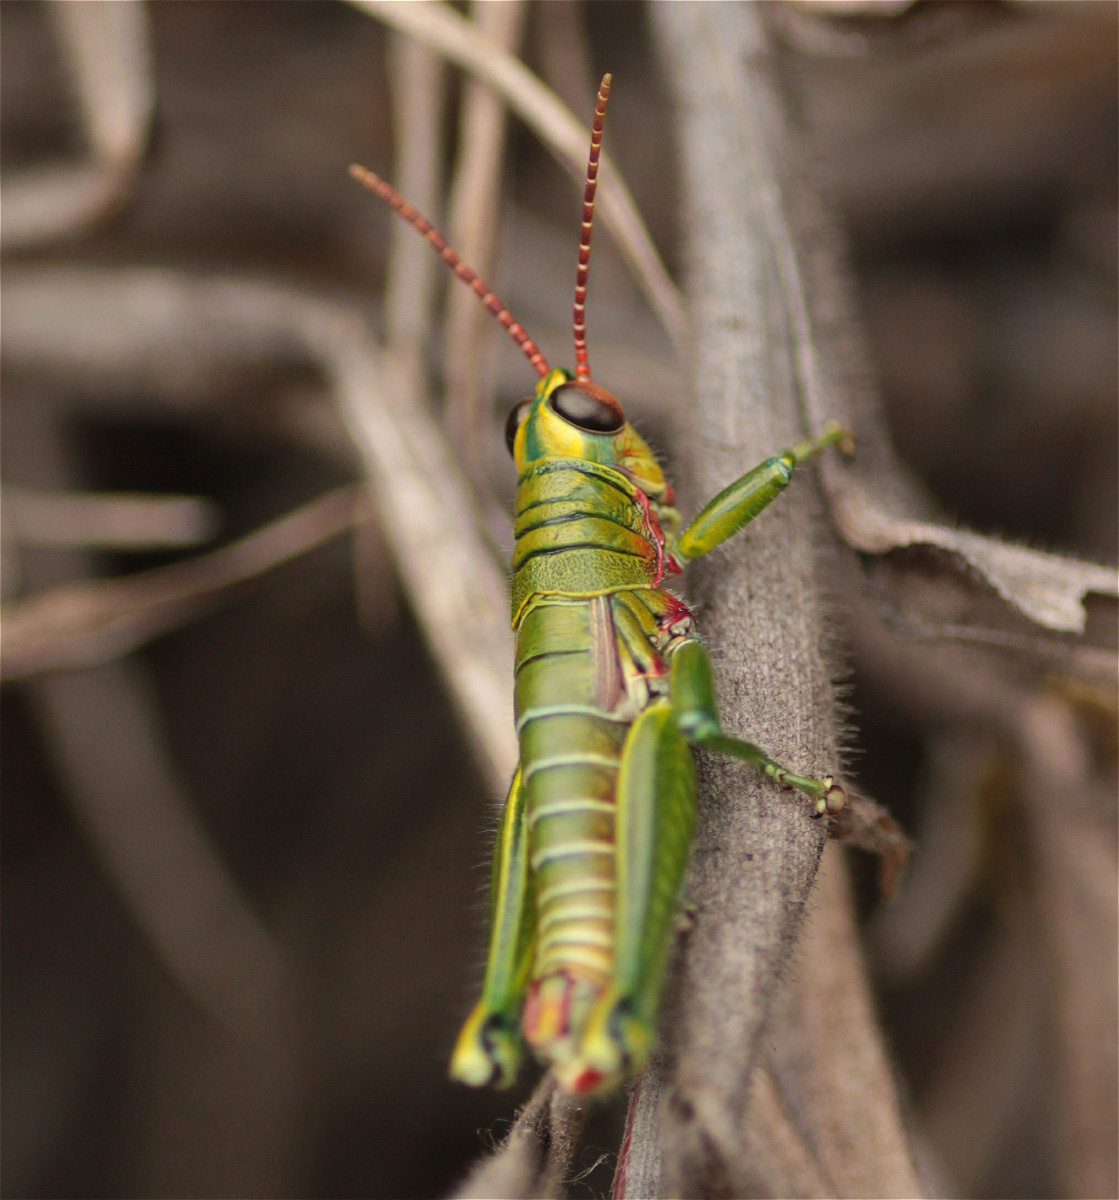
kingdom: Animalia
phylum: Arthropoda
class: Insecta
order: Orthoptera
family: Acrididae
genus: Agesander
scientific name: Agesander ruficornis
